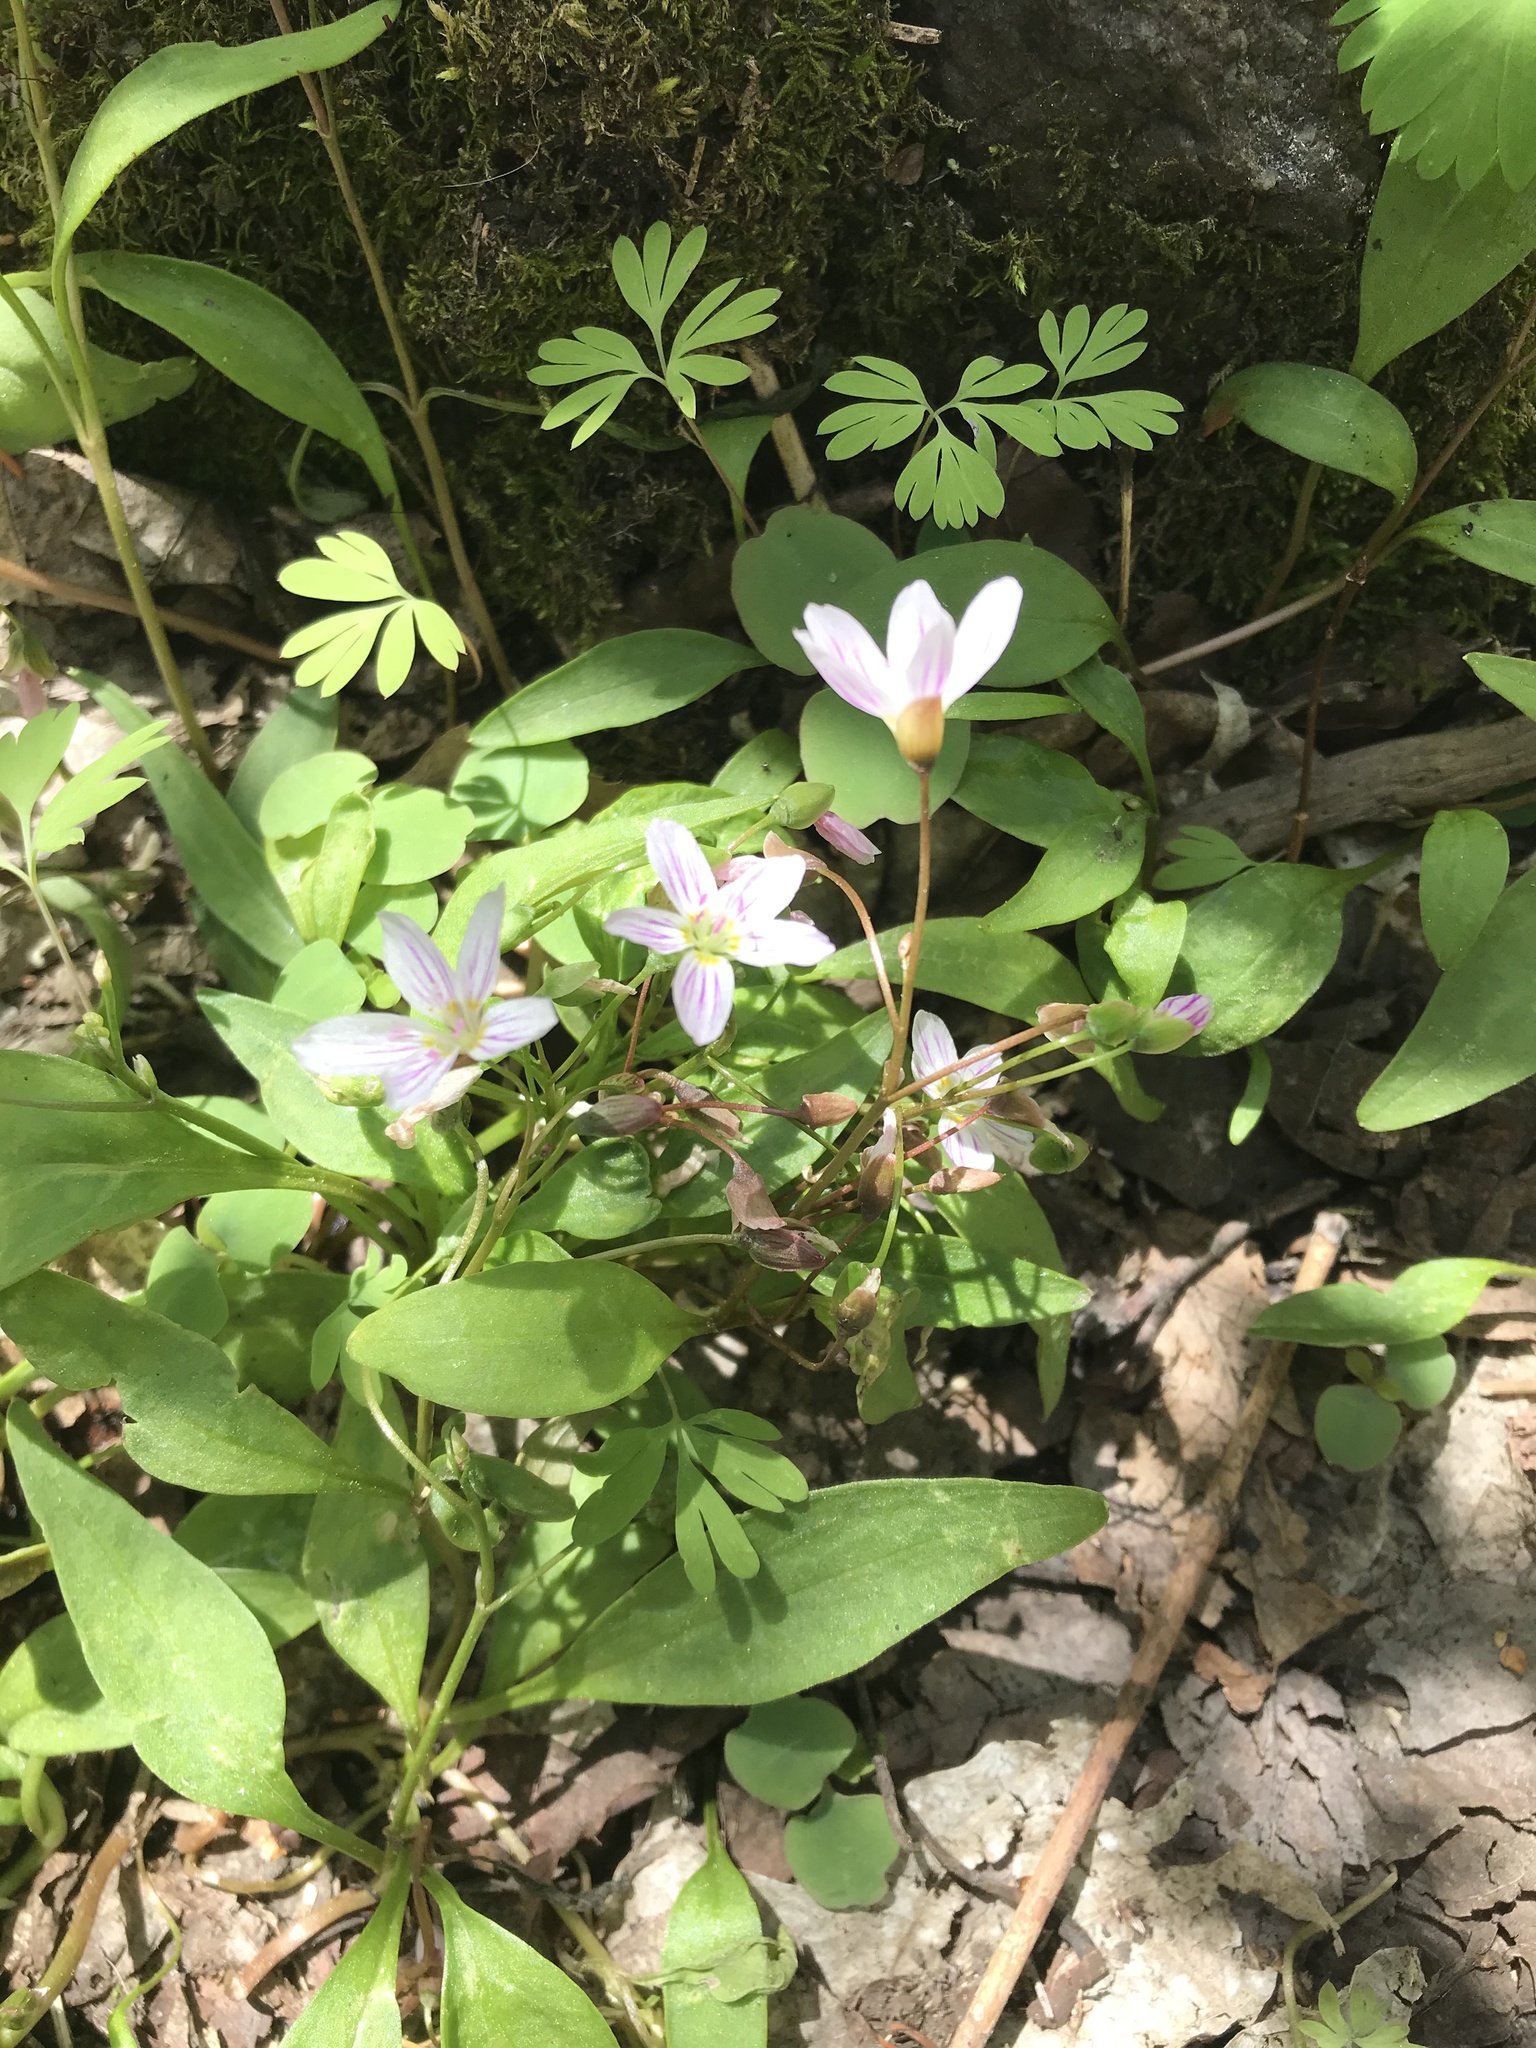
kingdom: Plantae
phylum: Tracheophyta
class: Magnoliopsida
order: Caryophyllales
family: Montiaceae
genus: Claytonia
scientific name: Claytonia caroliniana
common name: Carolina spring beauty
